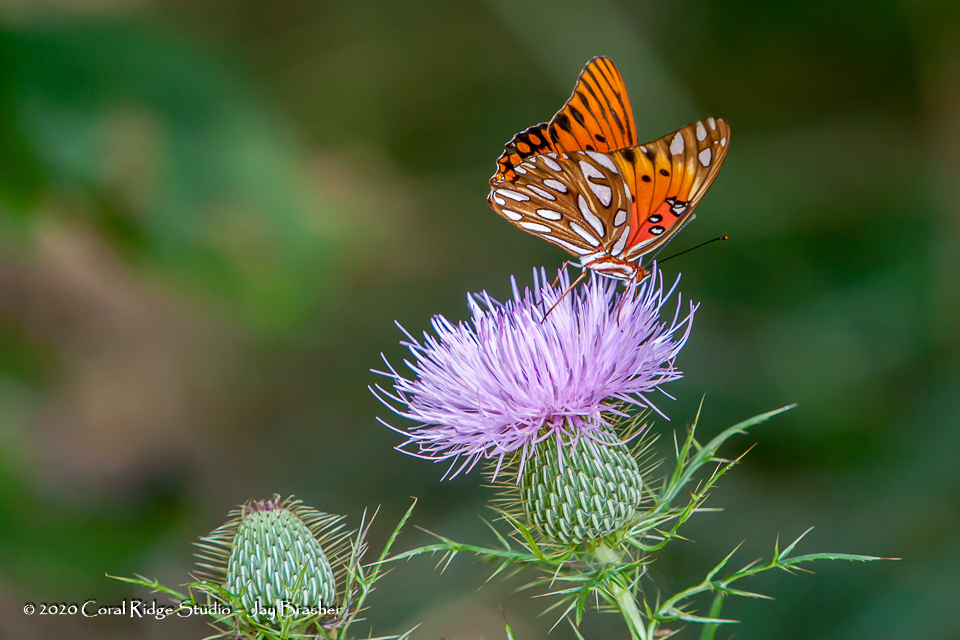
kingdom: Animalia
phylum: Arthropoda
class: Insecta
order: Lepidoptera
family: Nymphalidae
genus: Dione
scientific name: Dione vanillae
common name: Gulf fritillary
